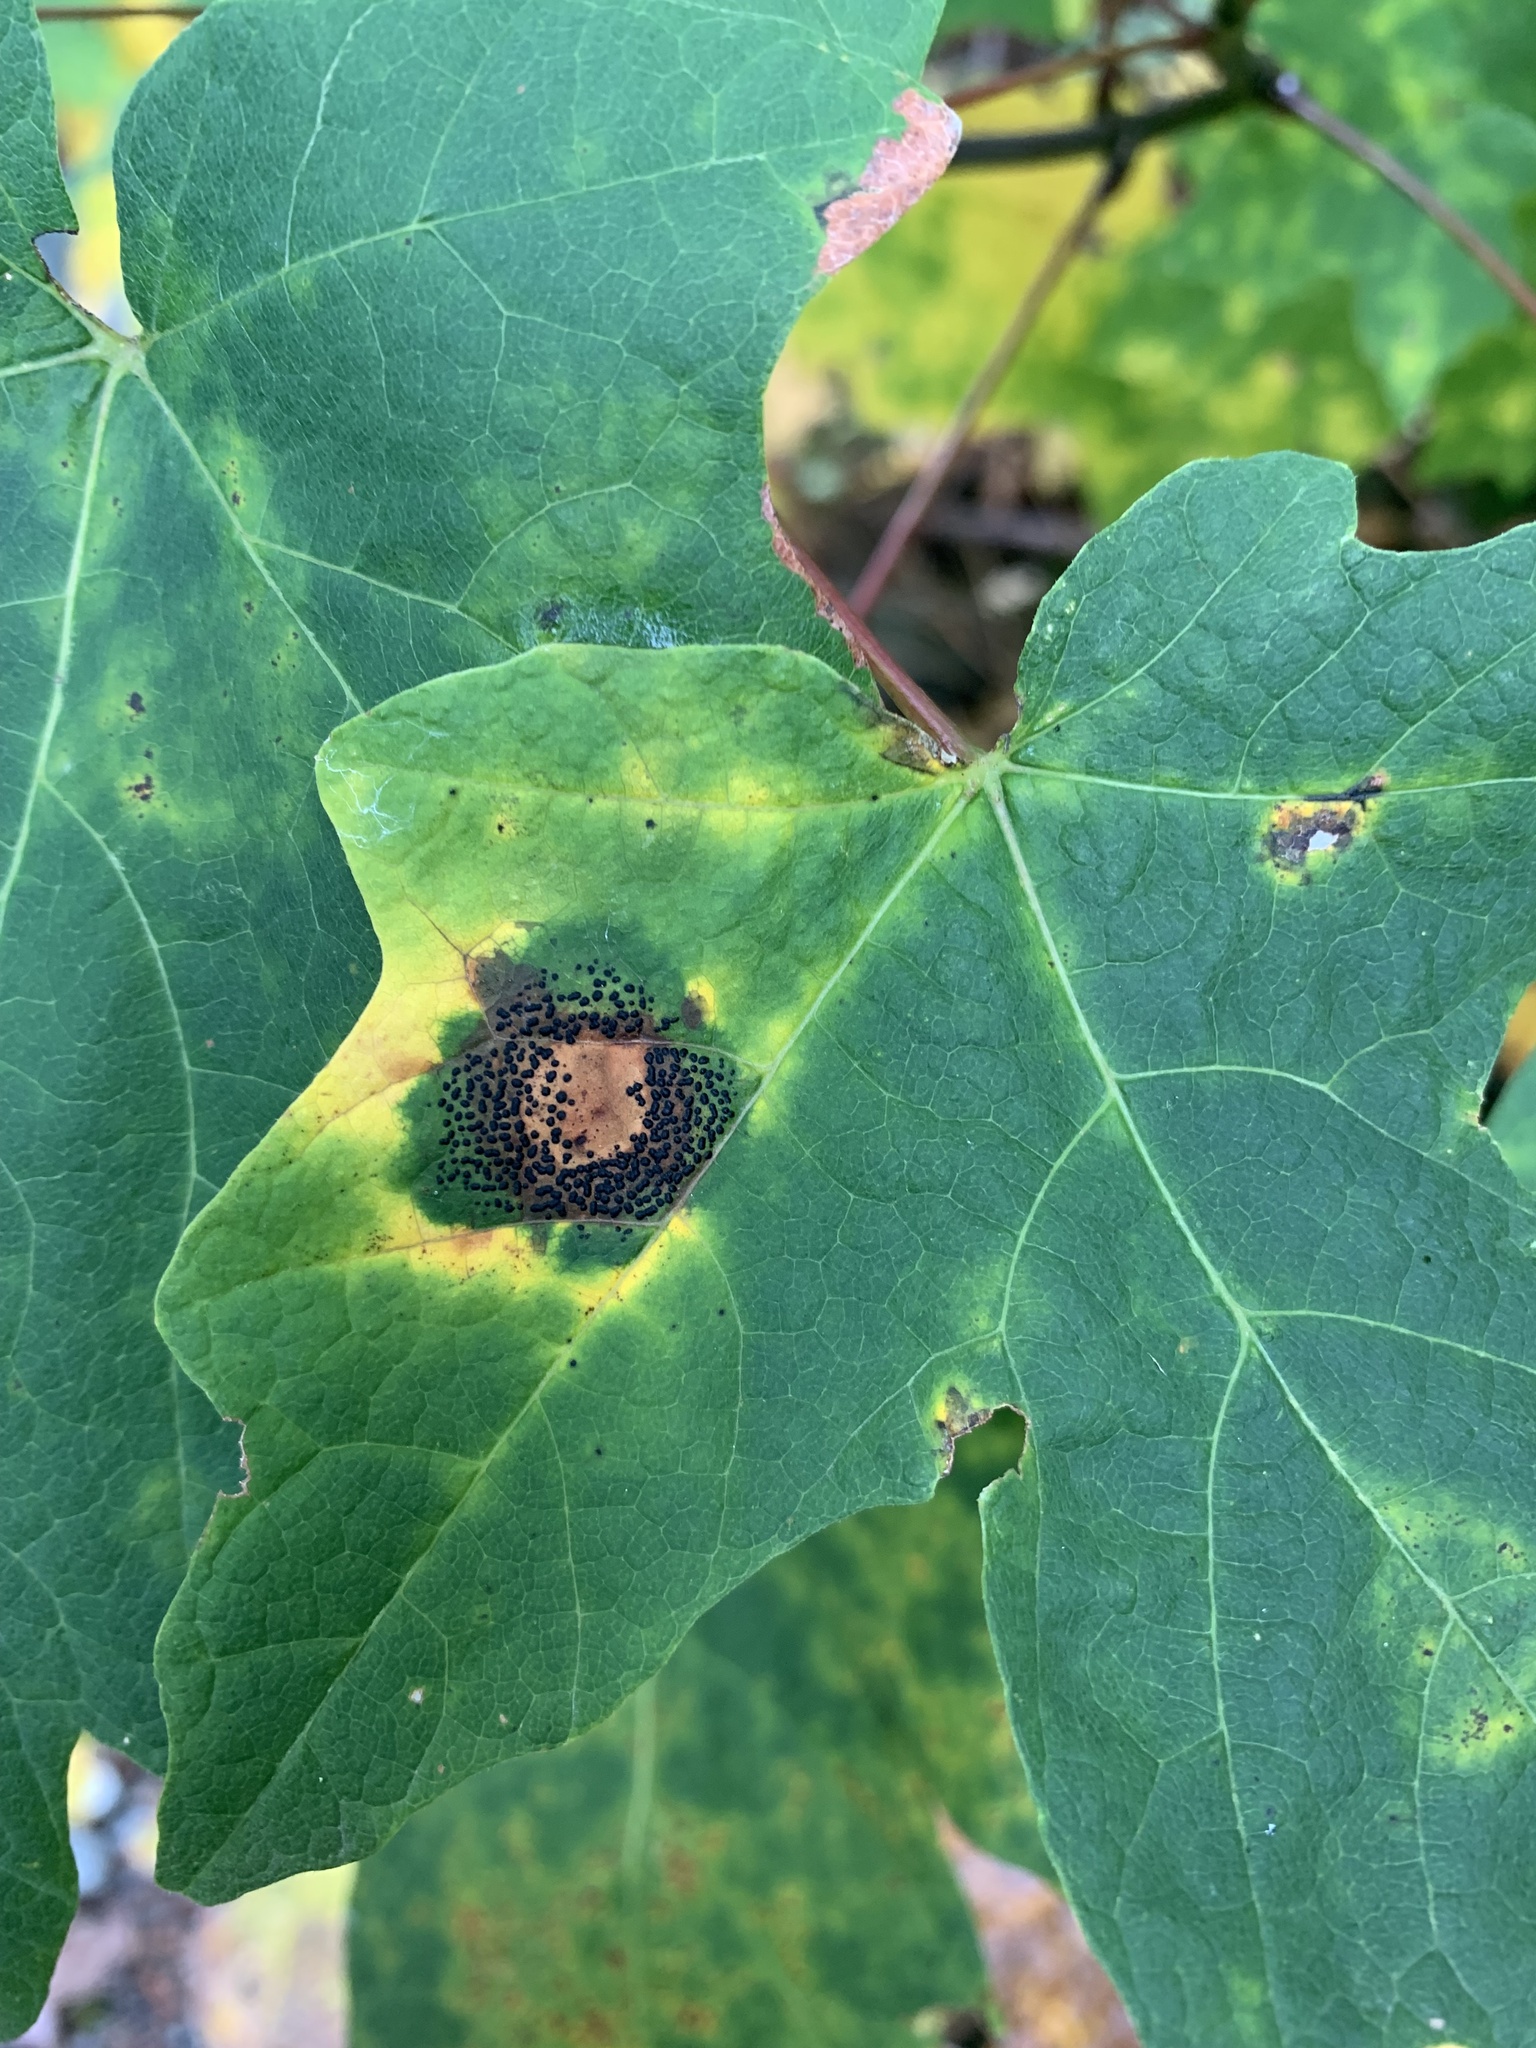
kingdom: Fungi
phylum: Ascomycota
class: Leotiomycetes
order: Rhytismatales
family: Rhytismataceae
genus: Rhytisma
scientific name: Rhytisma punctatum
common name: Speckled tar spot
